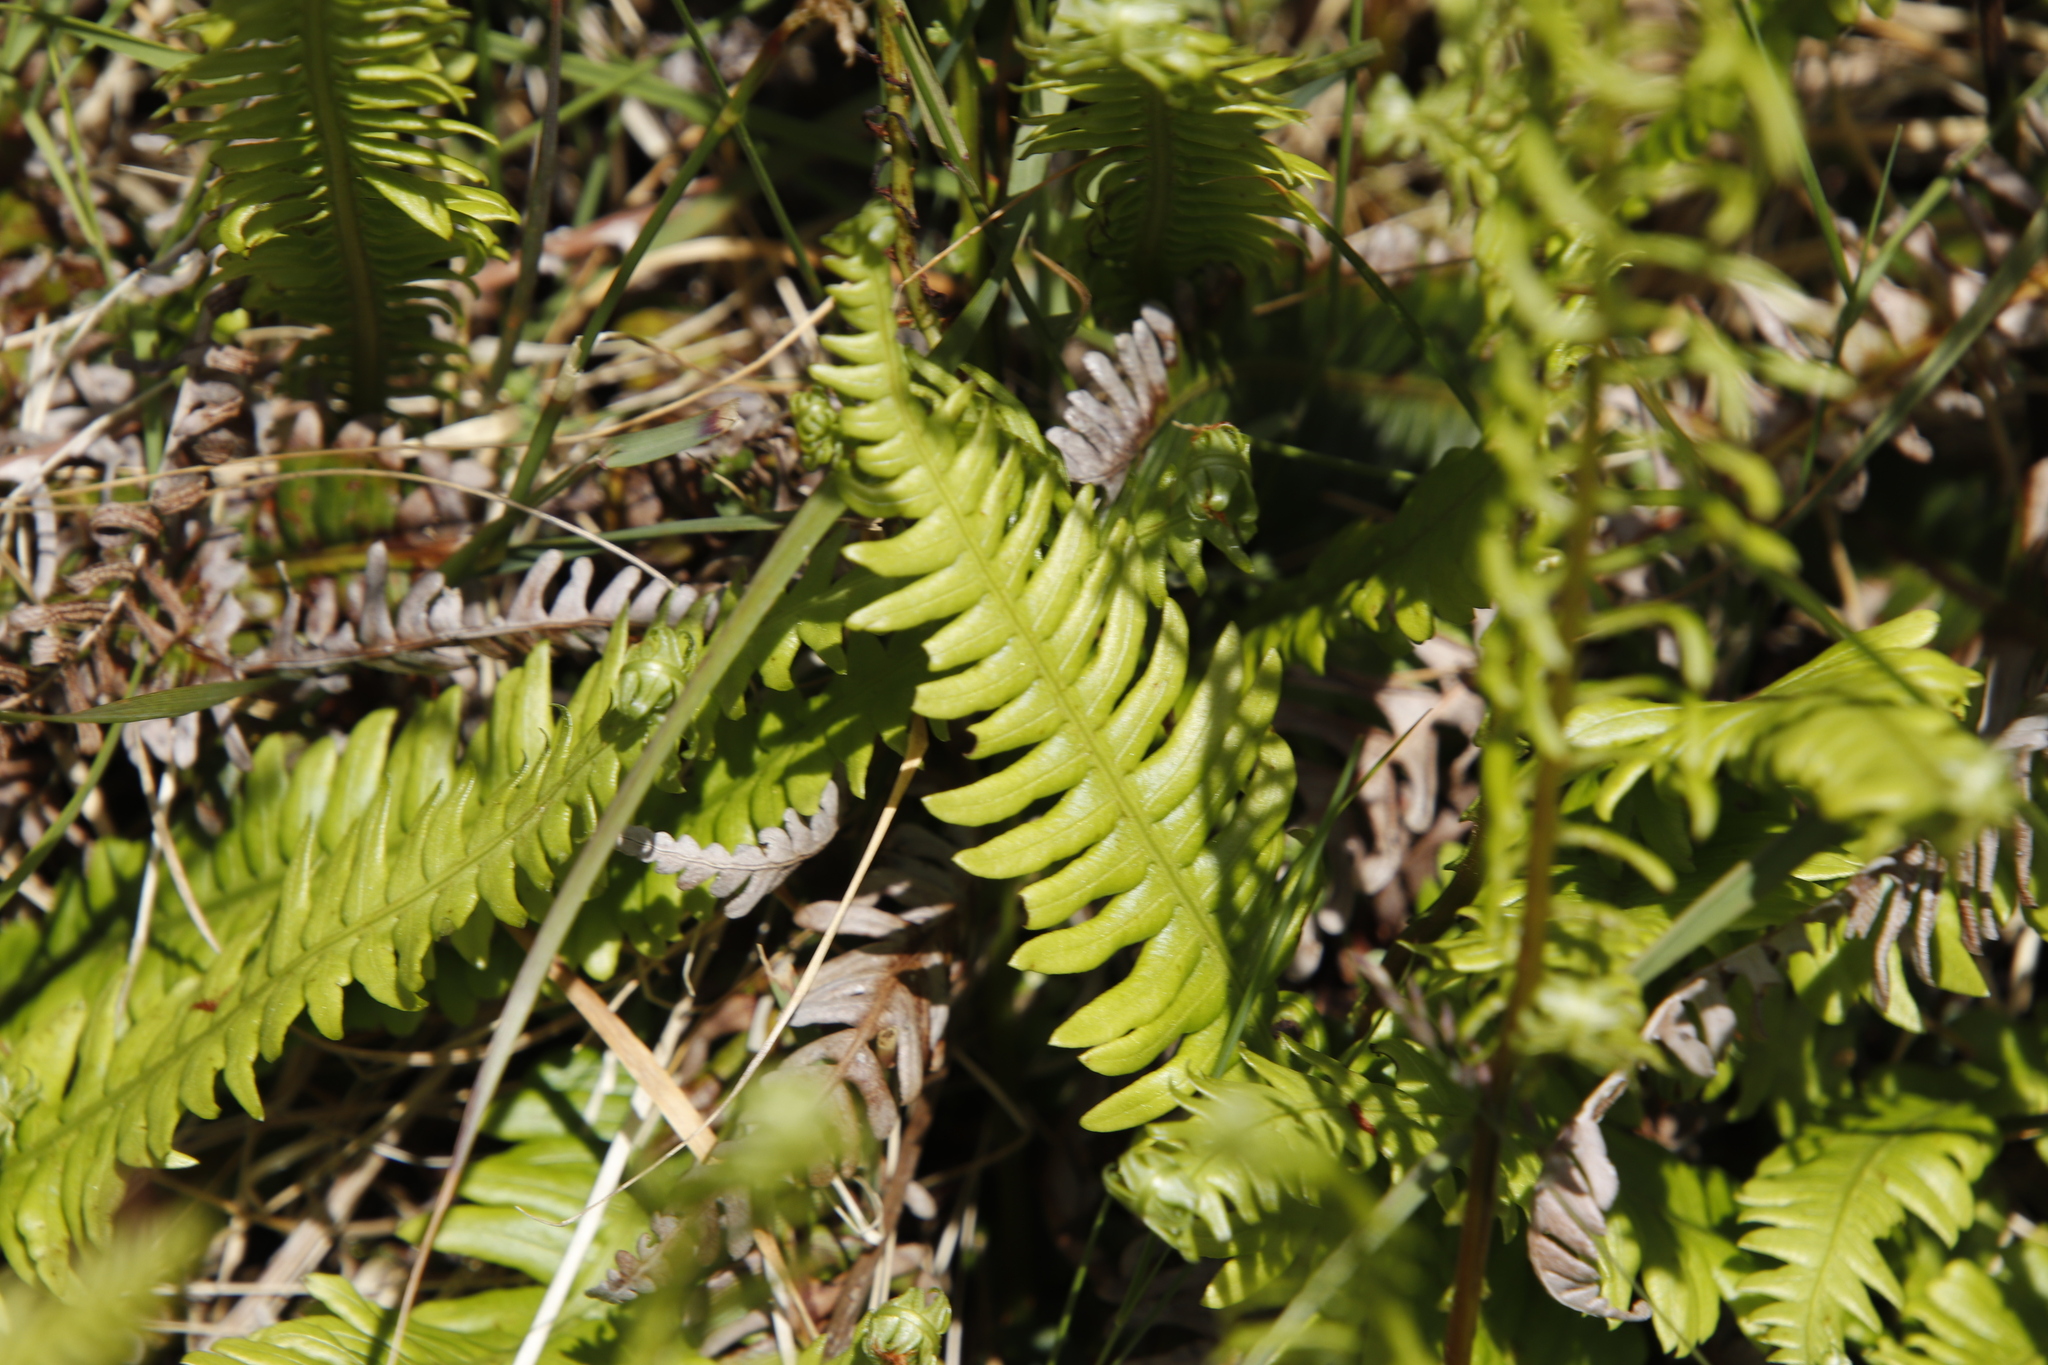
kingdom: Plantae
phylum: Tracheophyta
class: Polypodiopsida
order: Polypodiales
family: Blechnaceae
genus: Struthiopteris
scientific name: Struthiopteris spicant
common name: Deer fern
